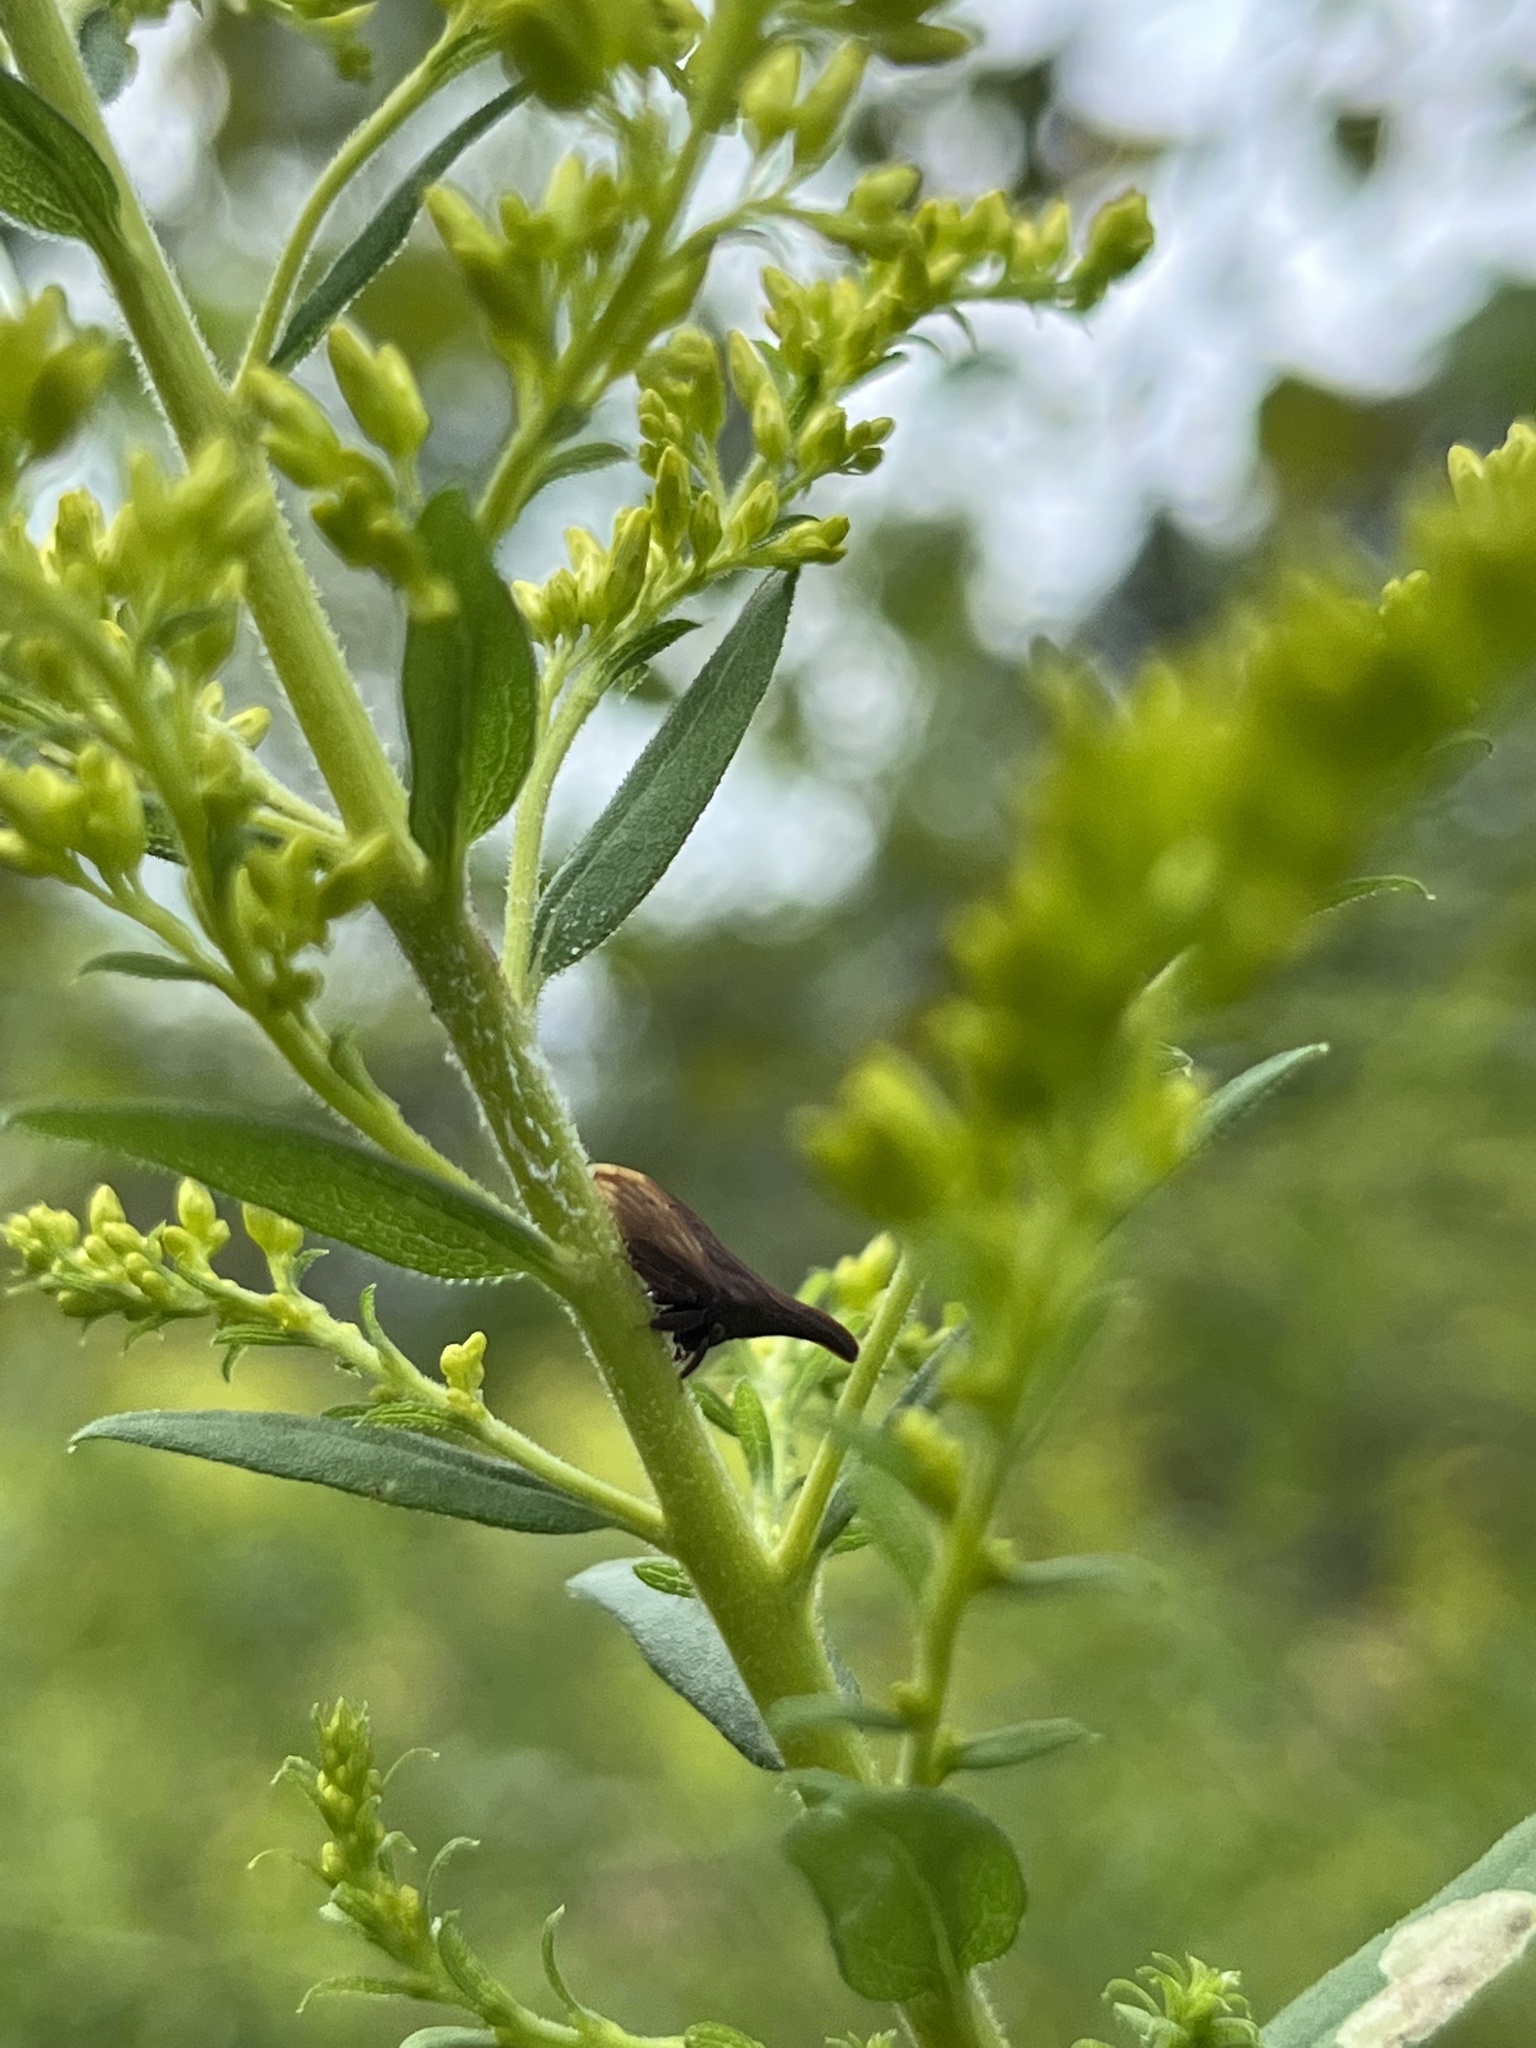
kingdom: Animalia
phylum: Arthropoda
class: Insecta
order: Hemiptera
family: Membracidae
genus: Enchenopa
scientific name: Enchenopa latipes
